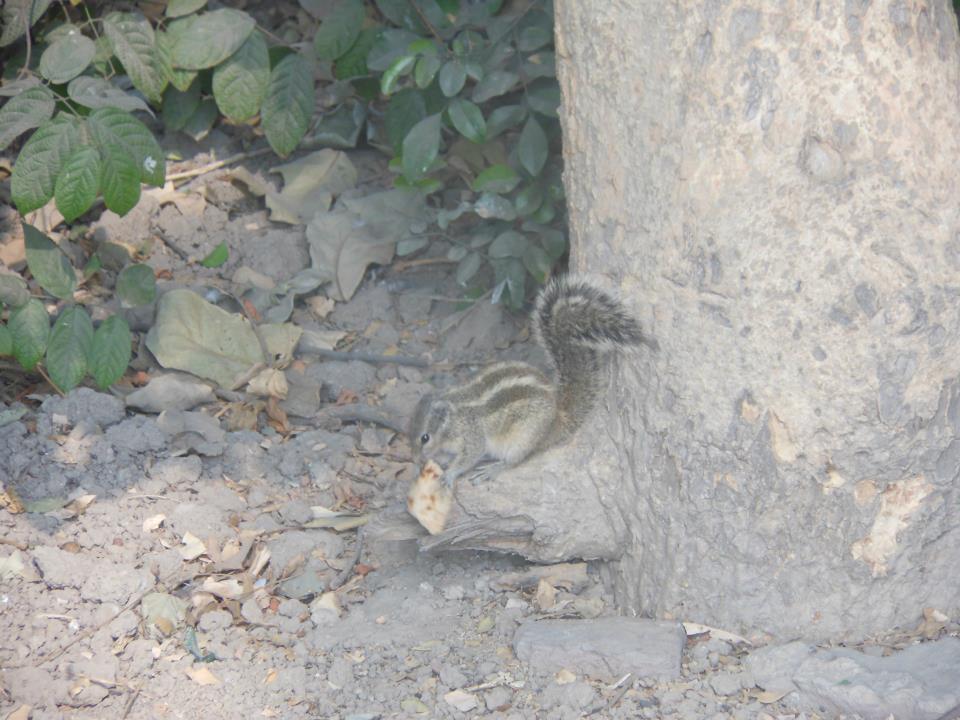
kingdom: Animalia
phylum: Chordata
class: Mammalia
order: Rodentia
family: Sciuridae
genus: Funambulus
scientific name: Funambulus pennantii
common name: Northern palm squirrel
